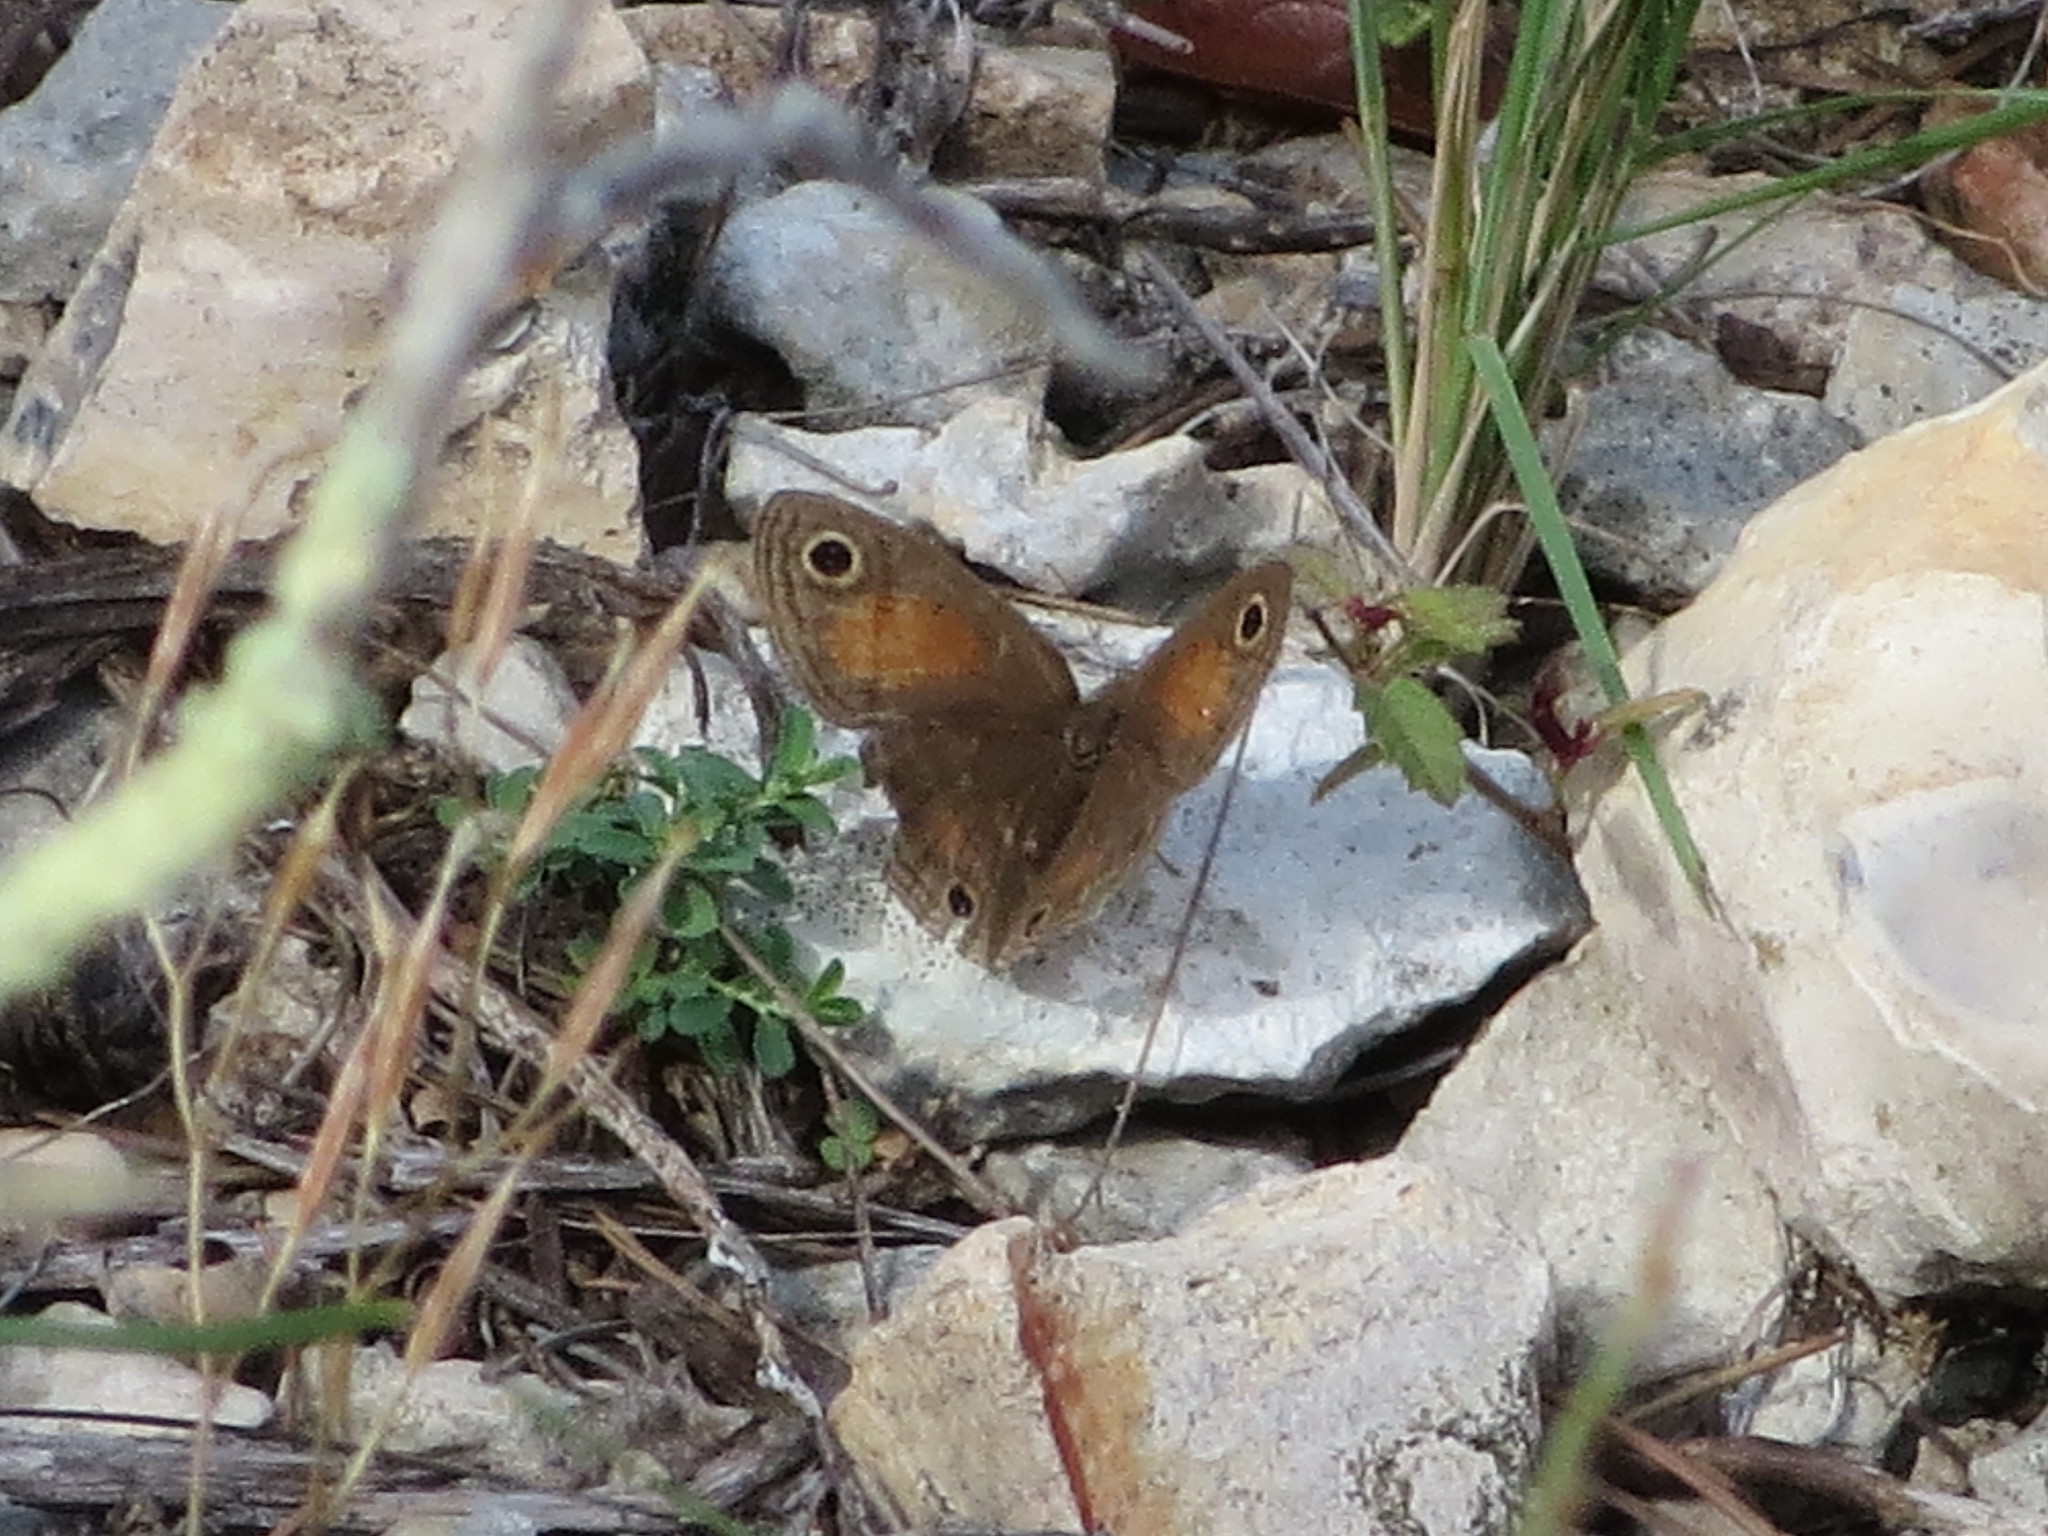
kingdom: Animalia
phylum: Arthropoda
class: Insecta
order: Lepidoptera
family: Nymphalidae
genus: Euptychia
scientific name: Euptychia Cissia rubricata
